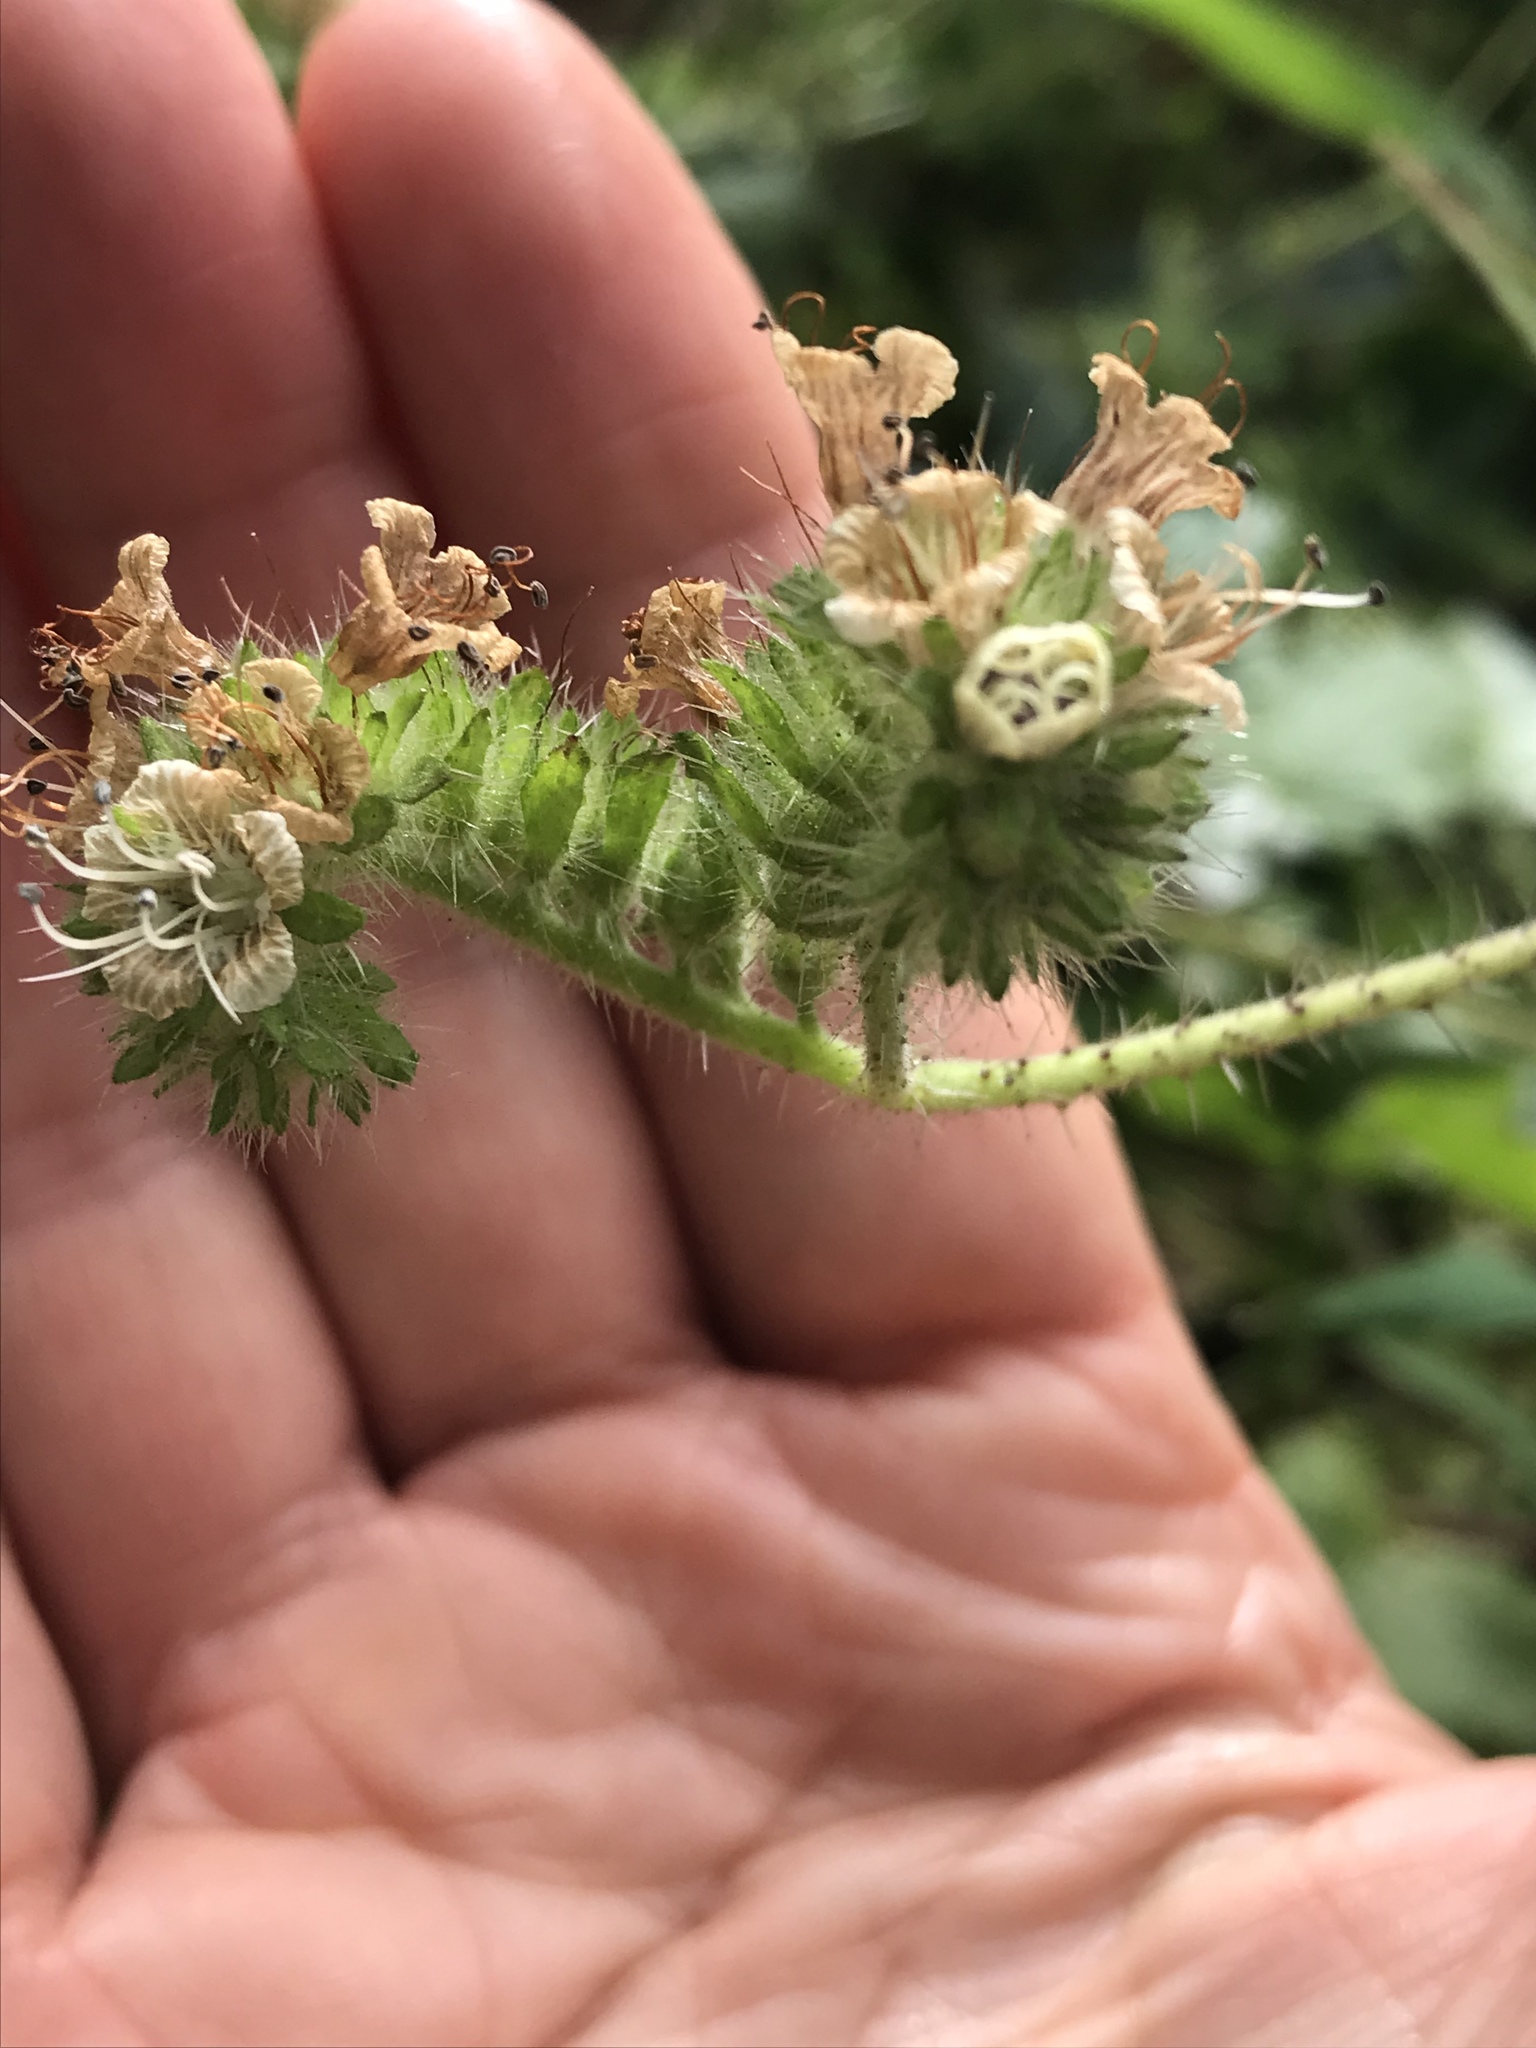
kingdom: Plantae
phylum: Tracheophyta
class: Magnoliopsida
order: Boraginales
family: Hydrophyllaceae
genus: Phacelia
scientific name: Phacelia malvifolia
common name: Mallow-leaf phacelia
